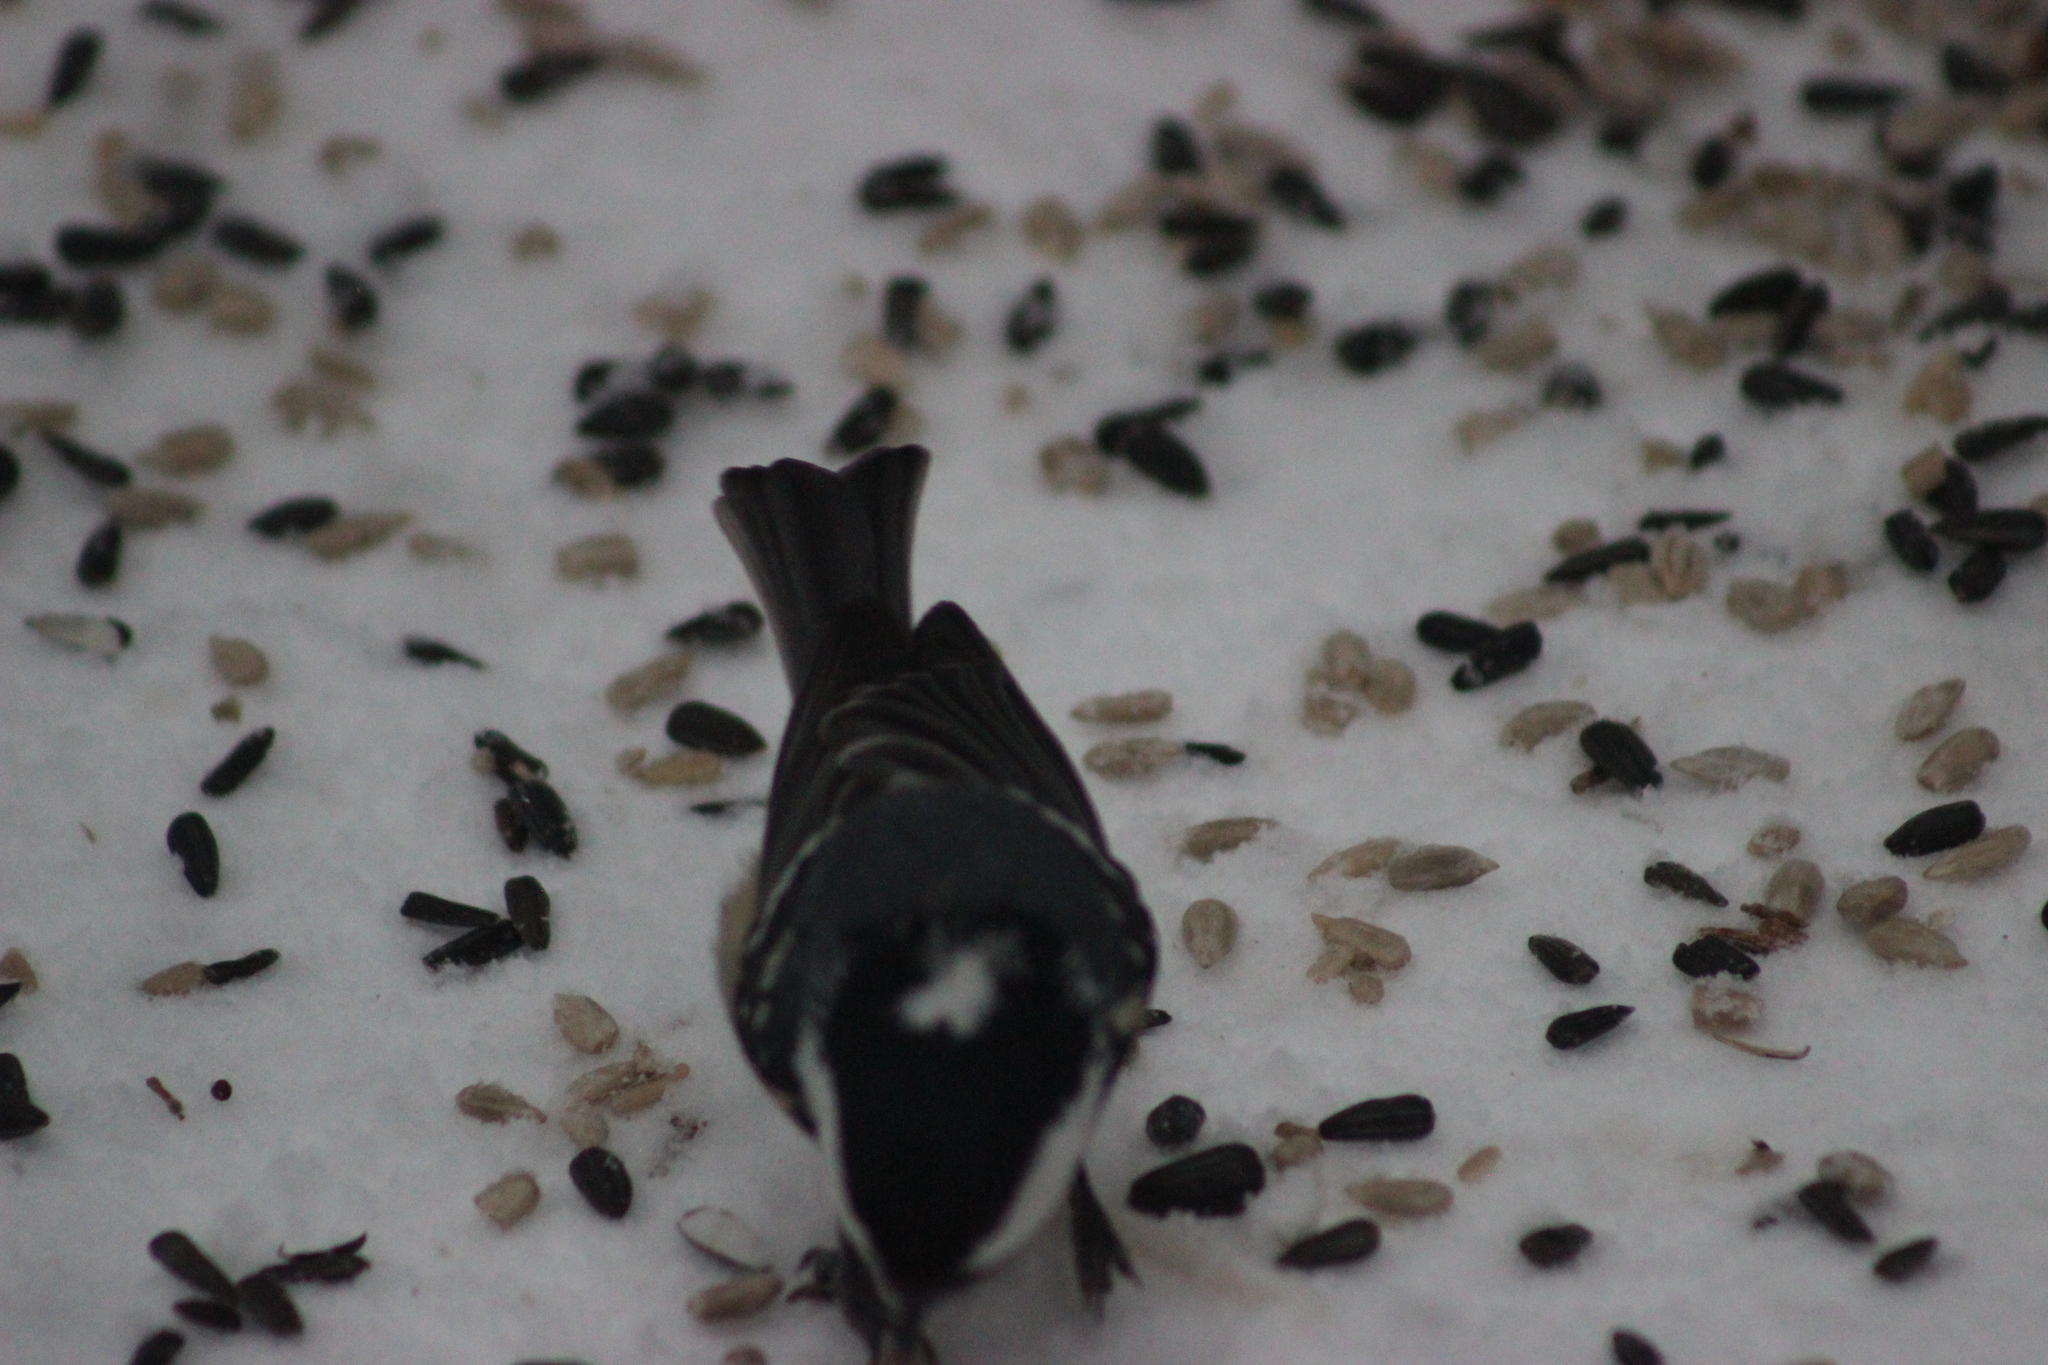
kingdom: Animalia
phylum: Chordata
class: Aves
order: Passeriformes
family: Paridae
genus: Periparus
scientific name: Periparus ater
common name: Coal tit
